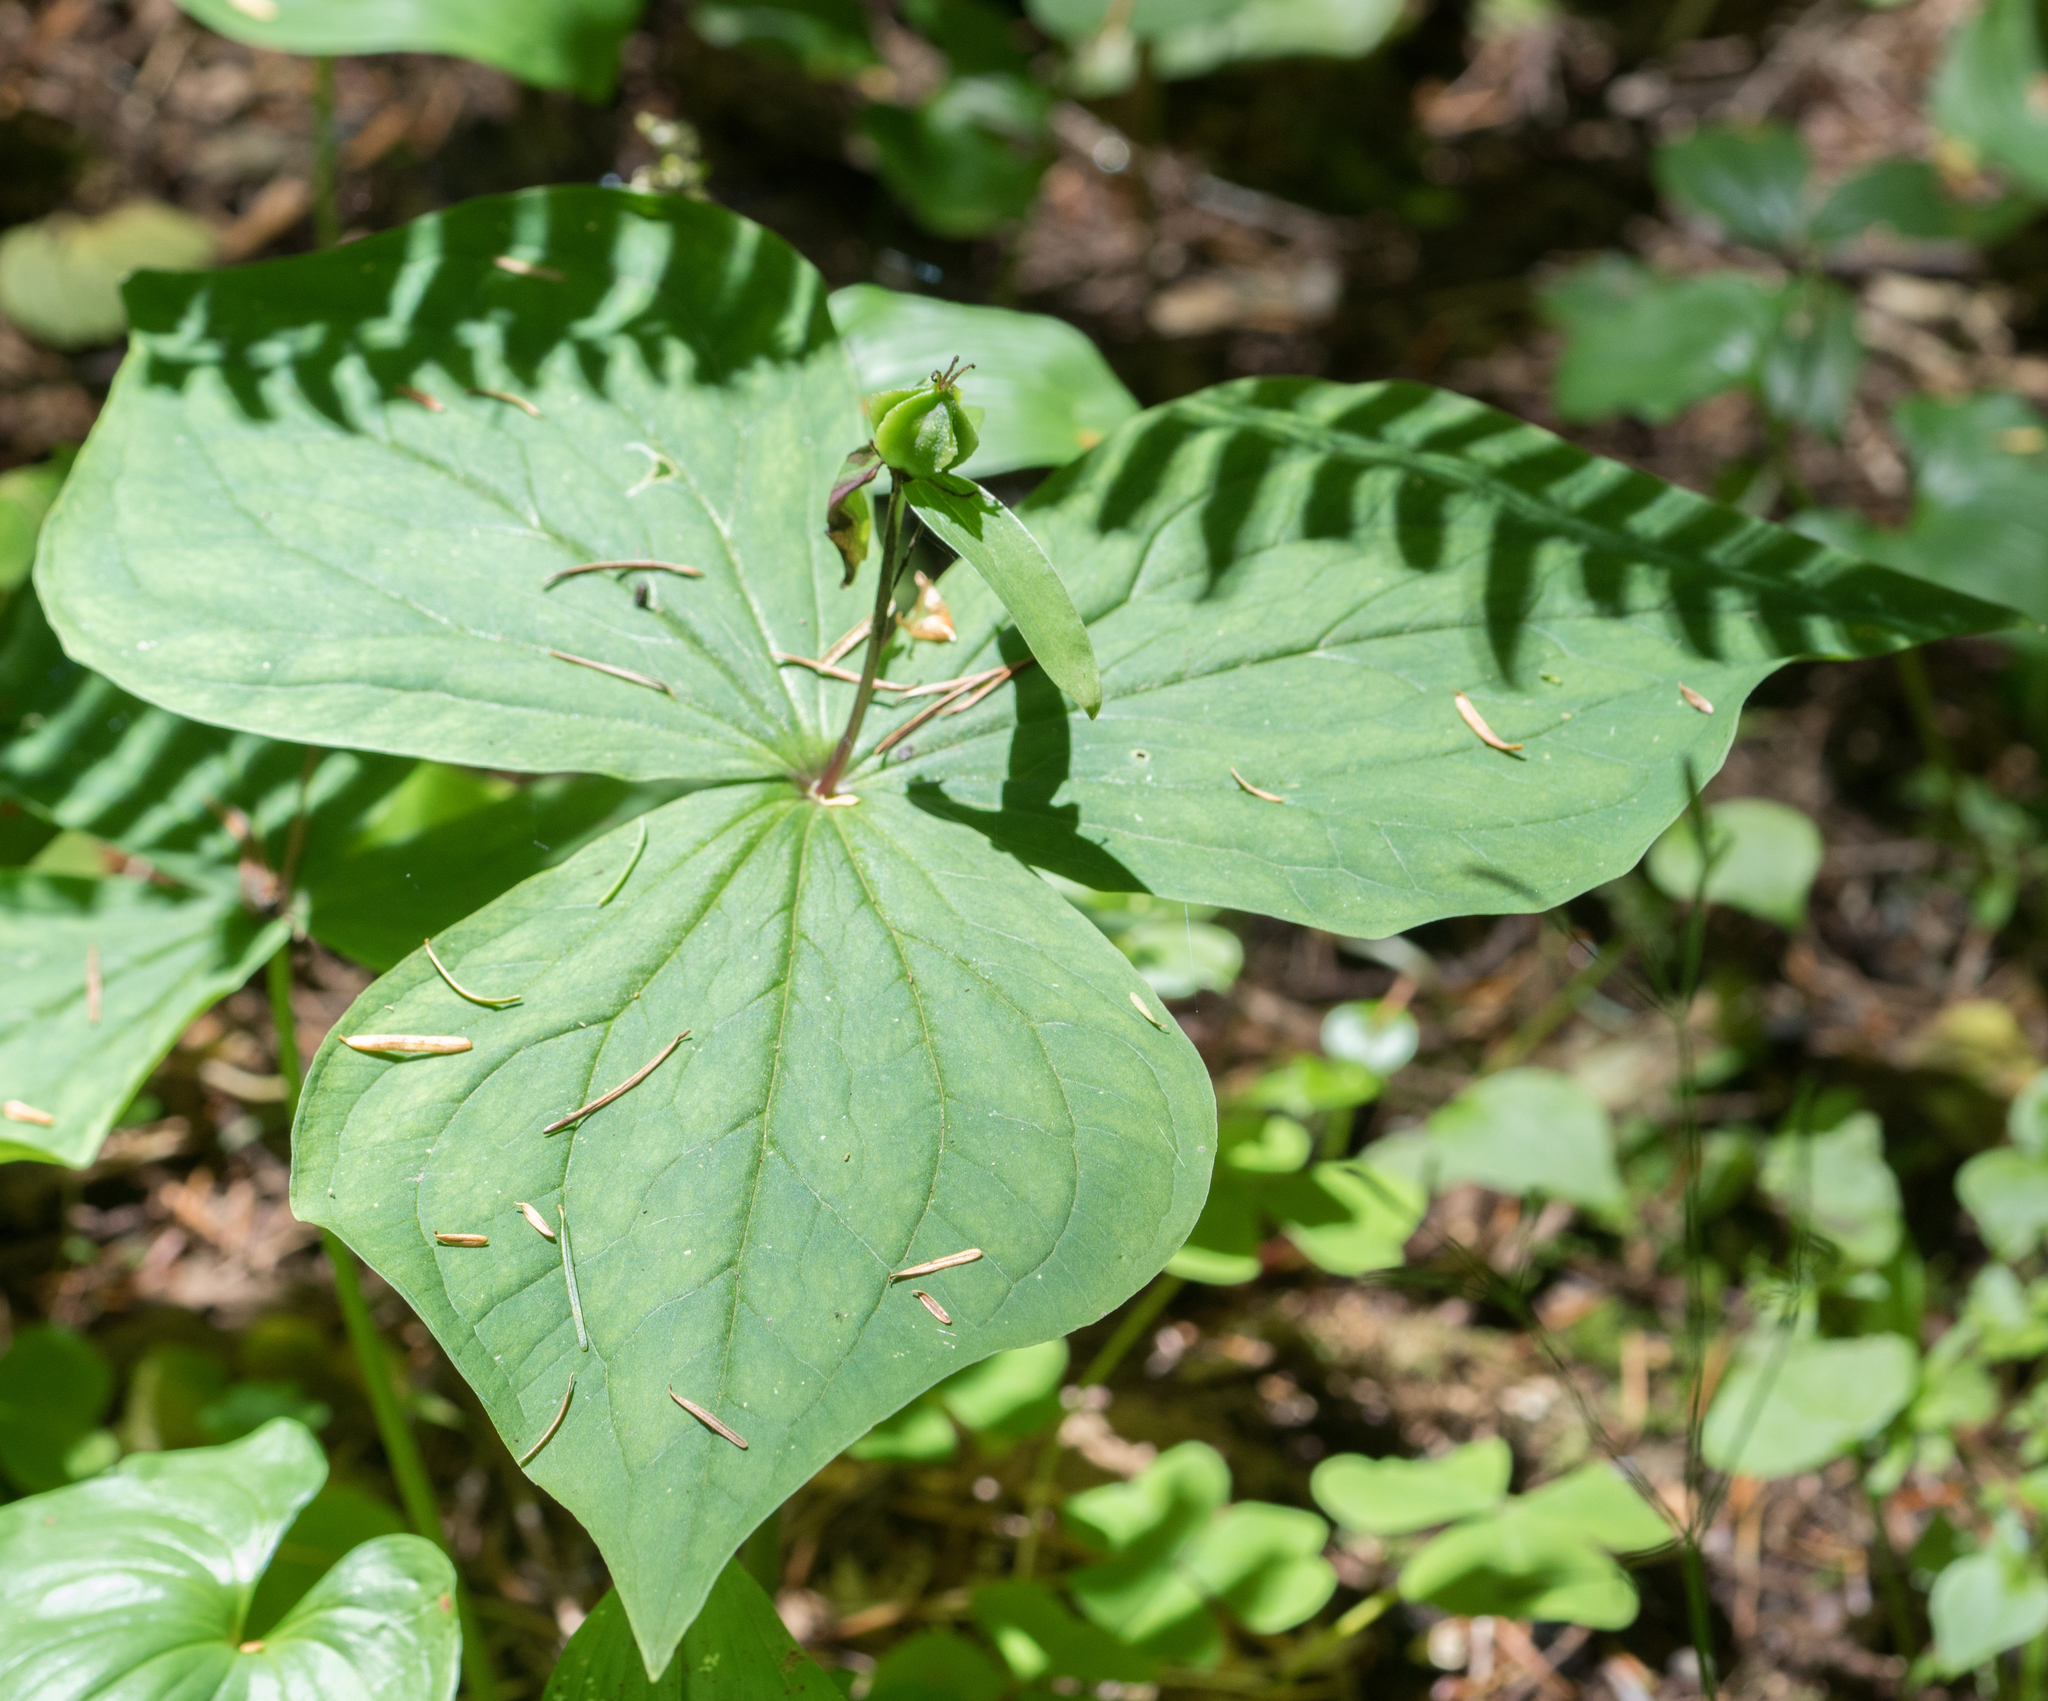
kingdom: Plantae
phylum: Tracheophyta
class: Liliopsida
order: Liliales
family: Melanthiaceae
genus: Trillium
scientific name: Trillium ovatum
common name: Pacific trillium
